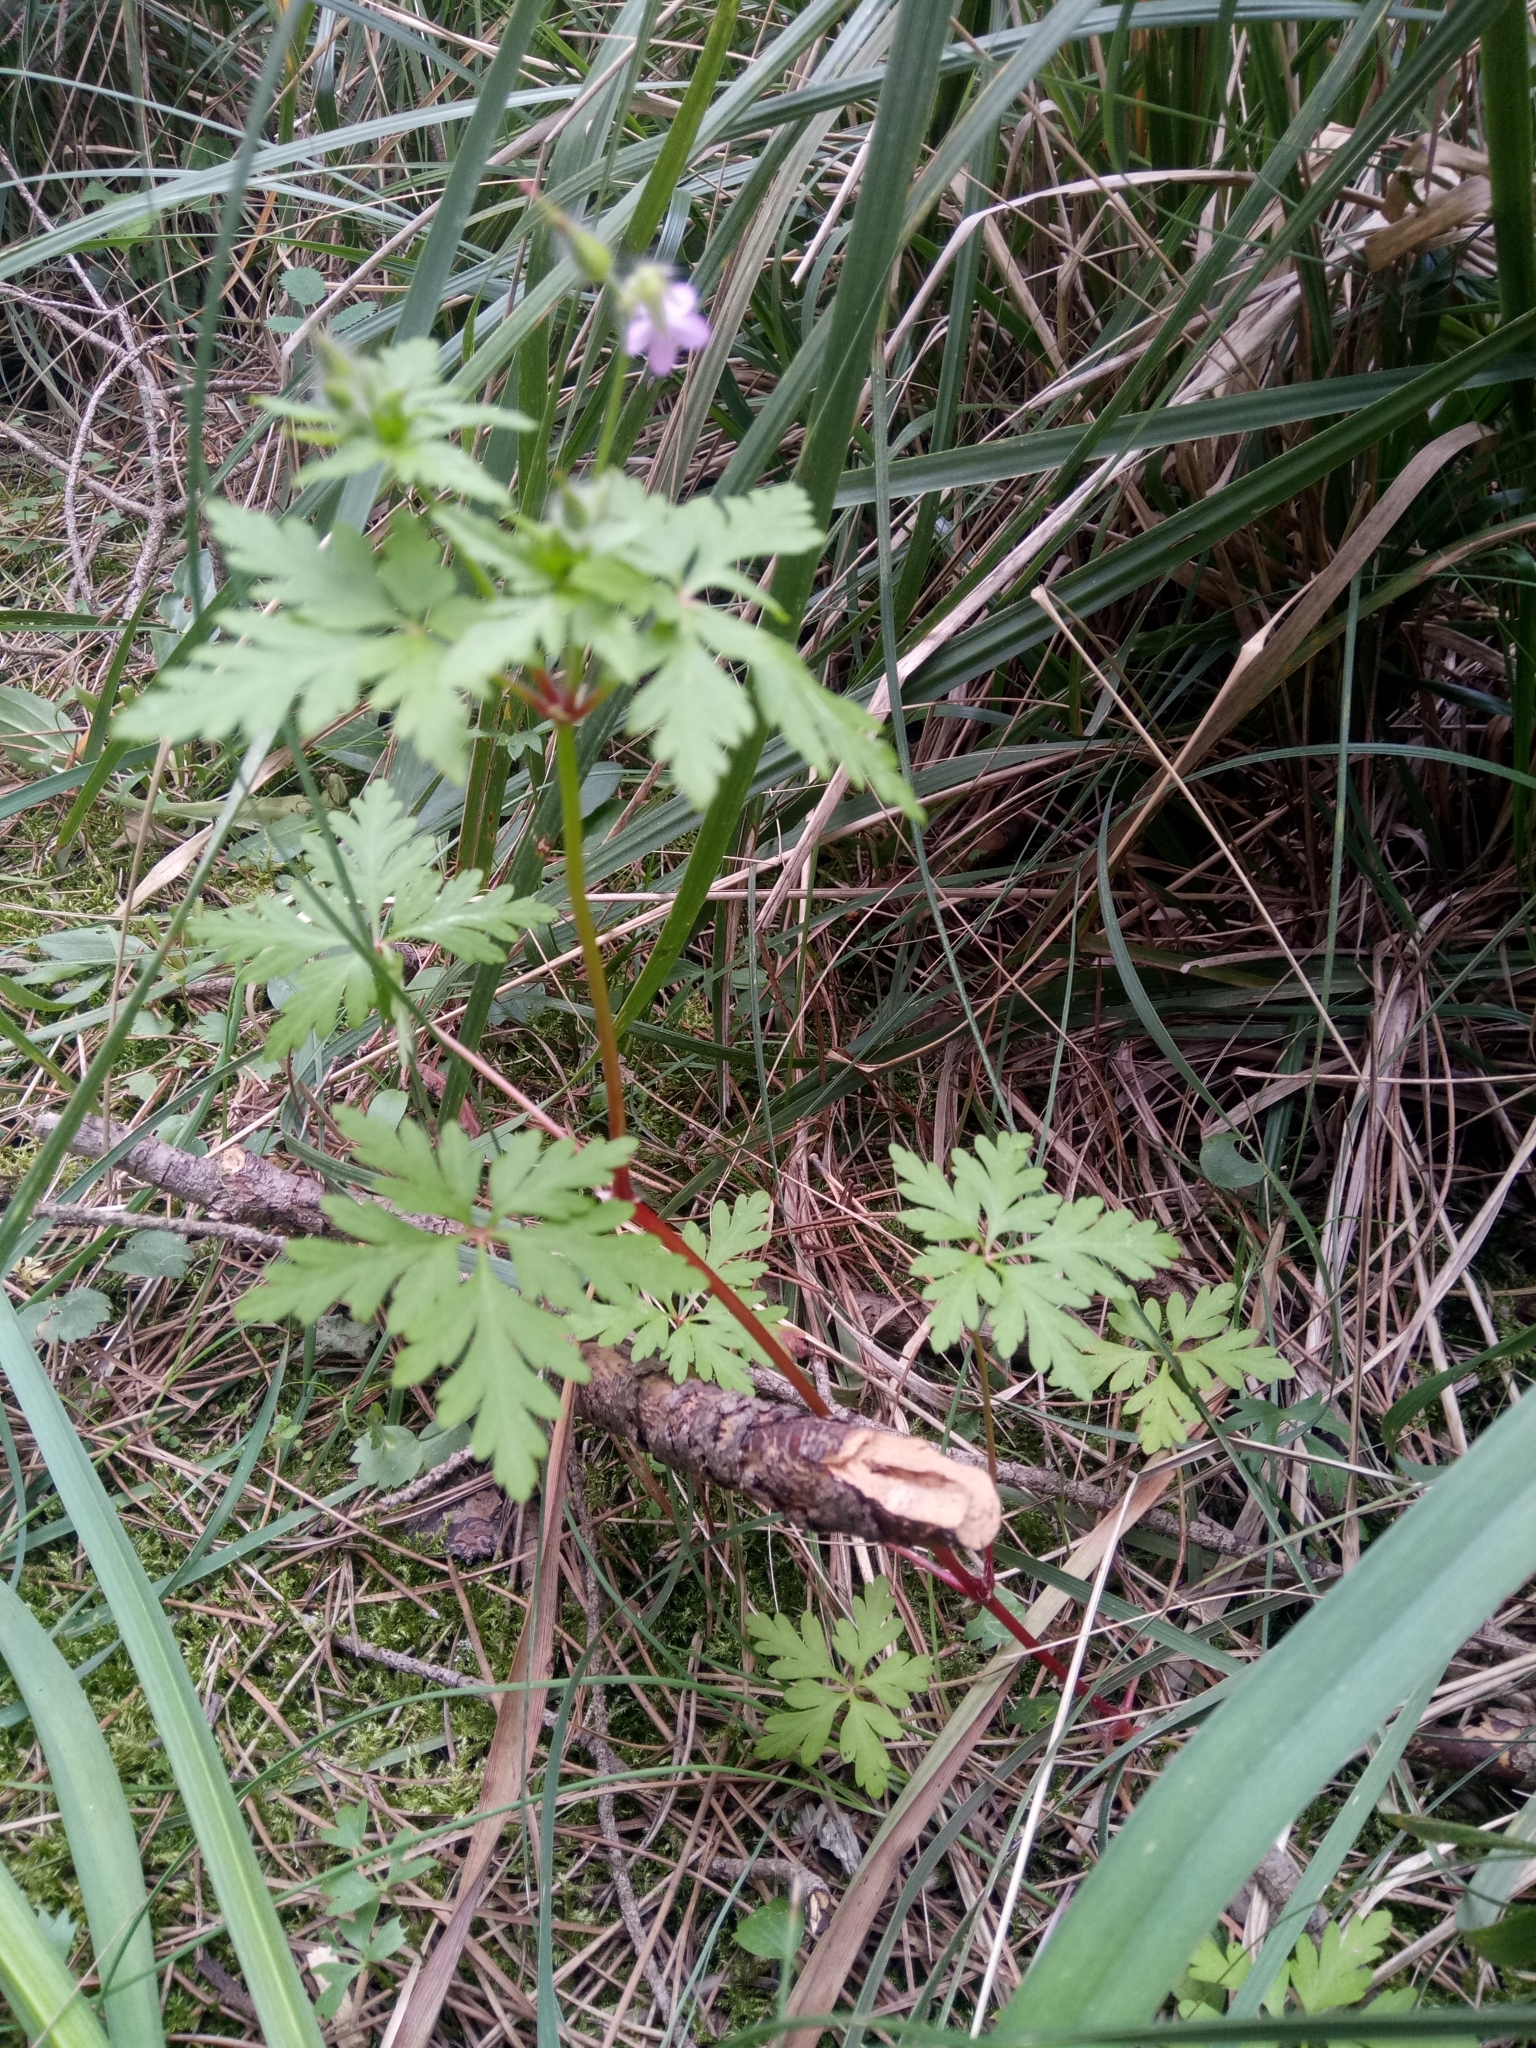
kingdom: Plantae
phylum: Tracheophyta
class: Magnoliopsida
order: Geraniales
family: Geraniaceae
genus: Geranium
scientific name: Geranium purpureum
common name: Little-robin
